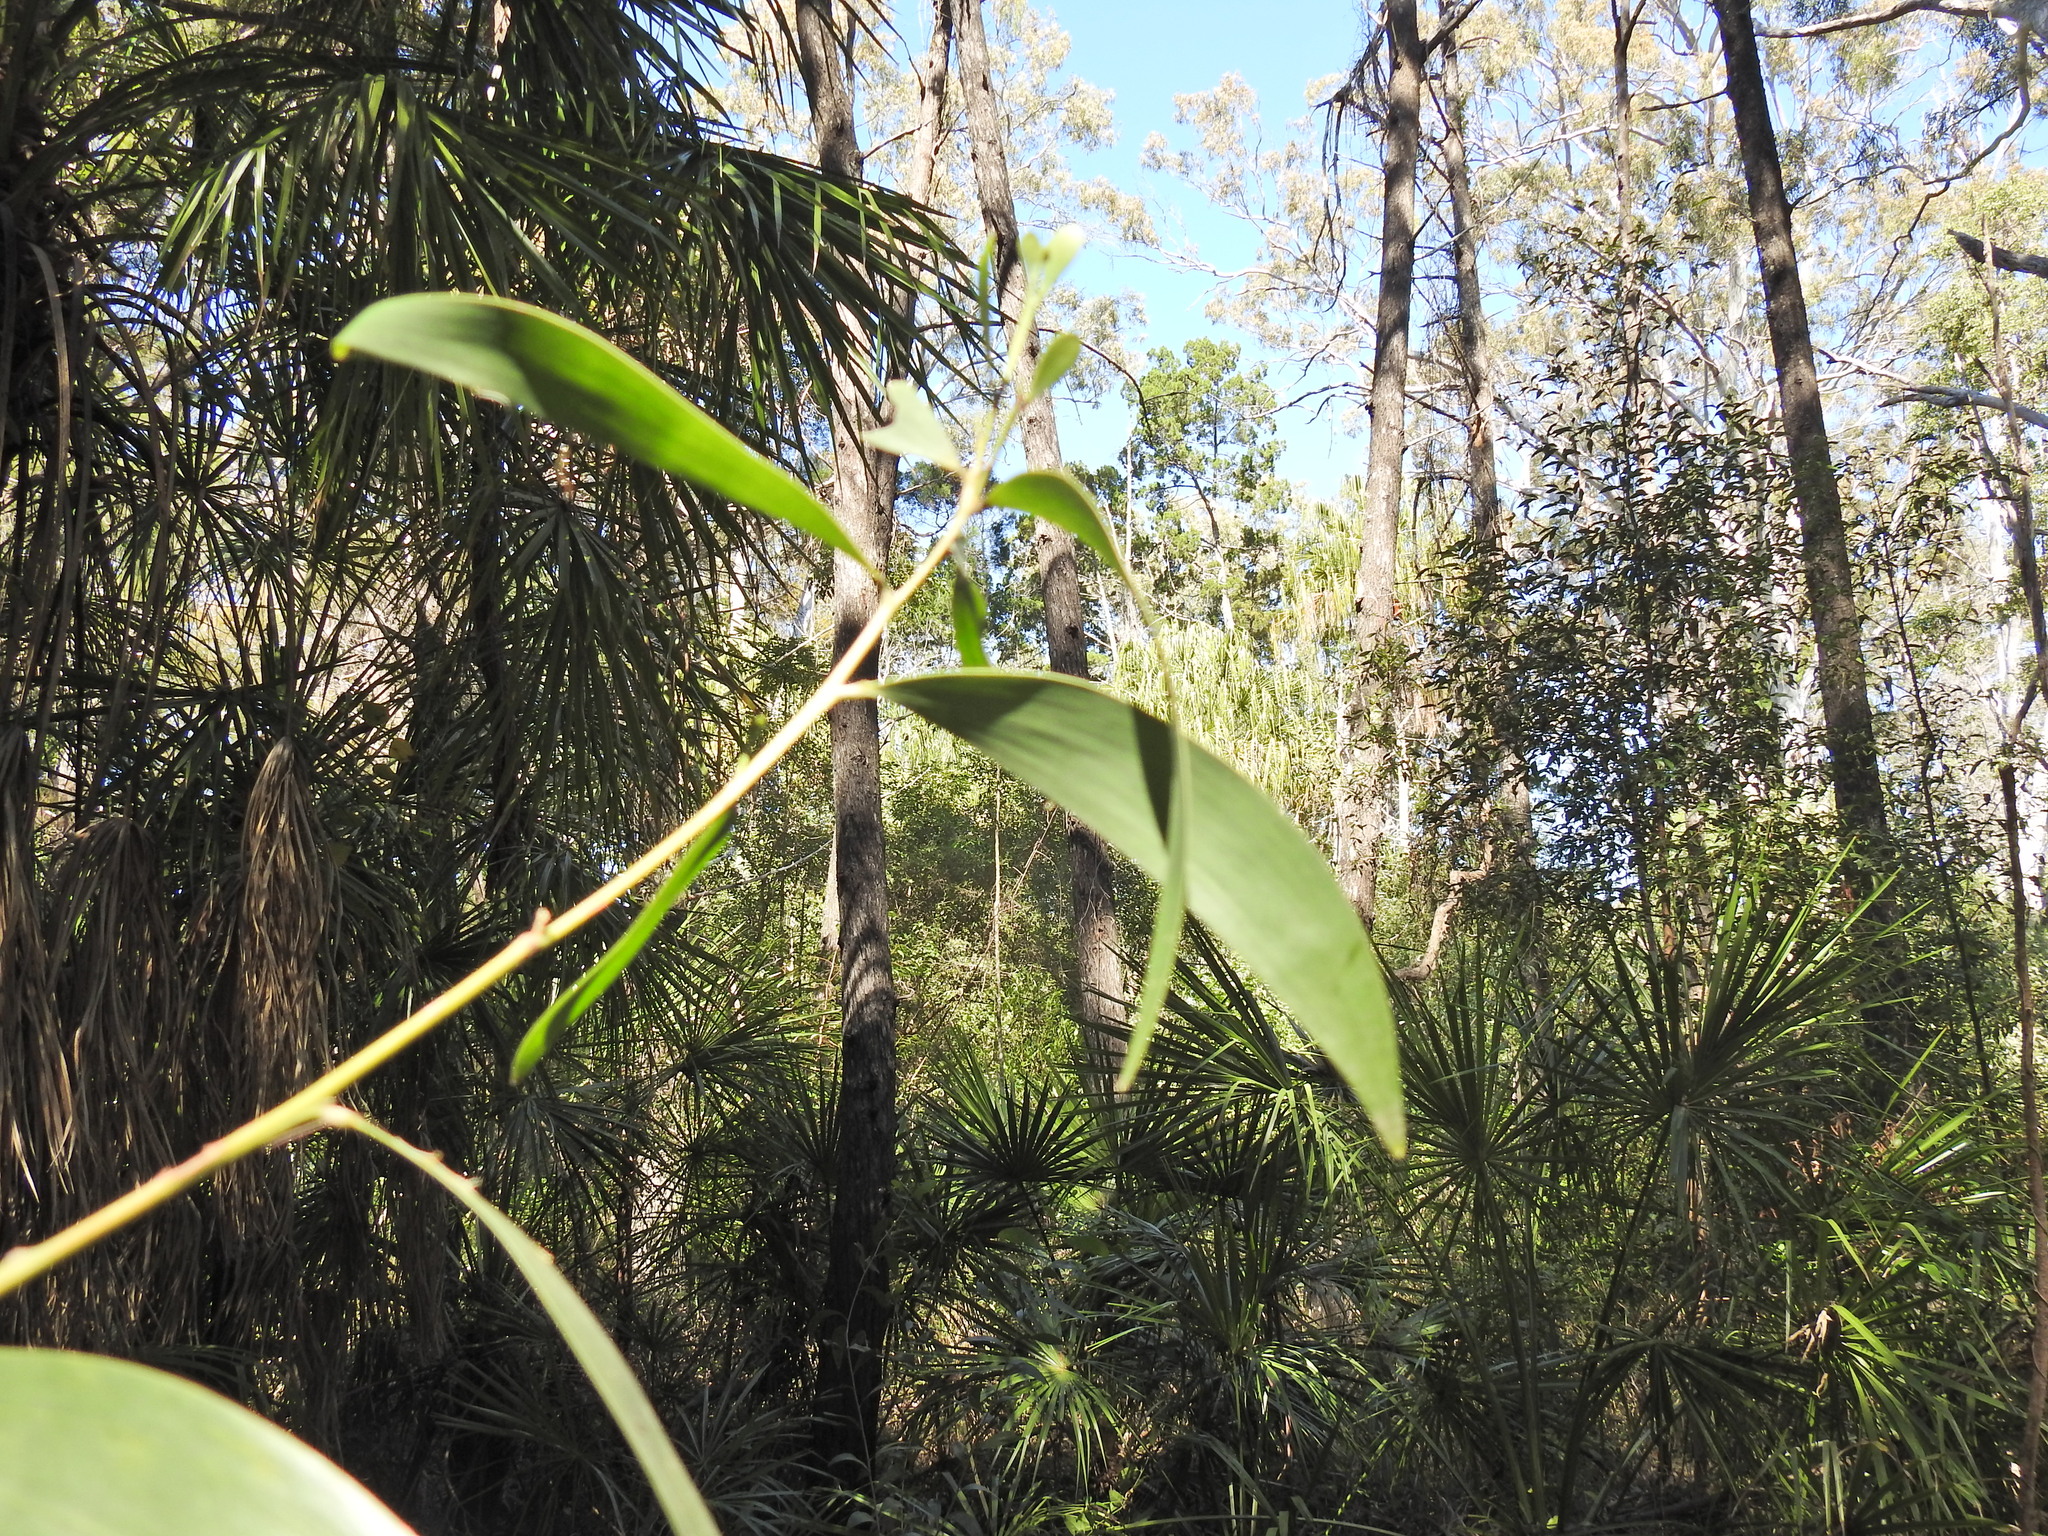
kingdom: Plantae
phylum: Tracheophyta
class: Magnoliopsida
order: Fabales
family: Fabaceae
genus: Acacia
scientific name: Acacia disparrima
